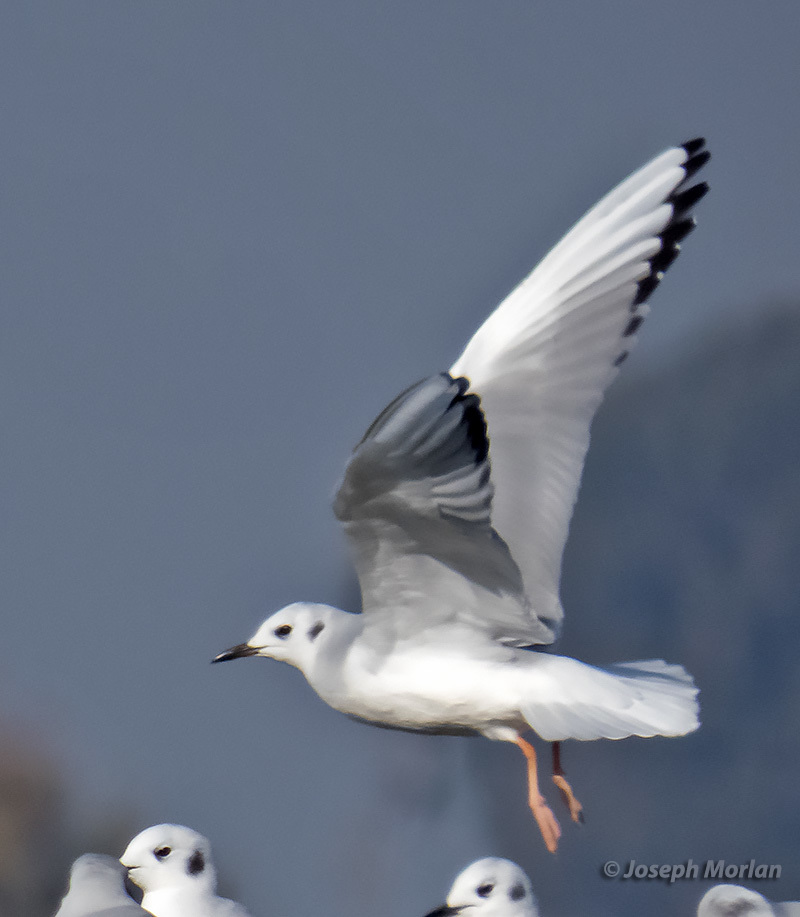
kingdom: Animalia
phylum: Chordata
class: Aves
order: Charadriiformes
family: Laridae
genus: Chroicocephalus
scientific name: Chroicocephalus philadelphia
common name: Bonaparte's gull
